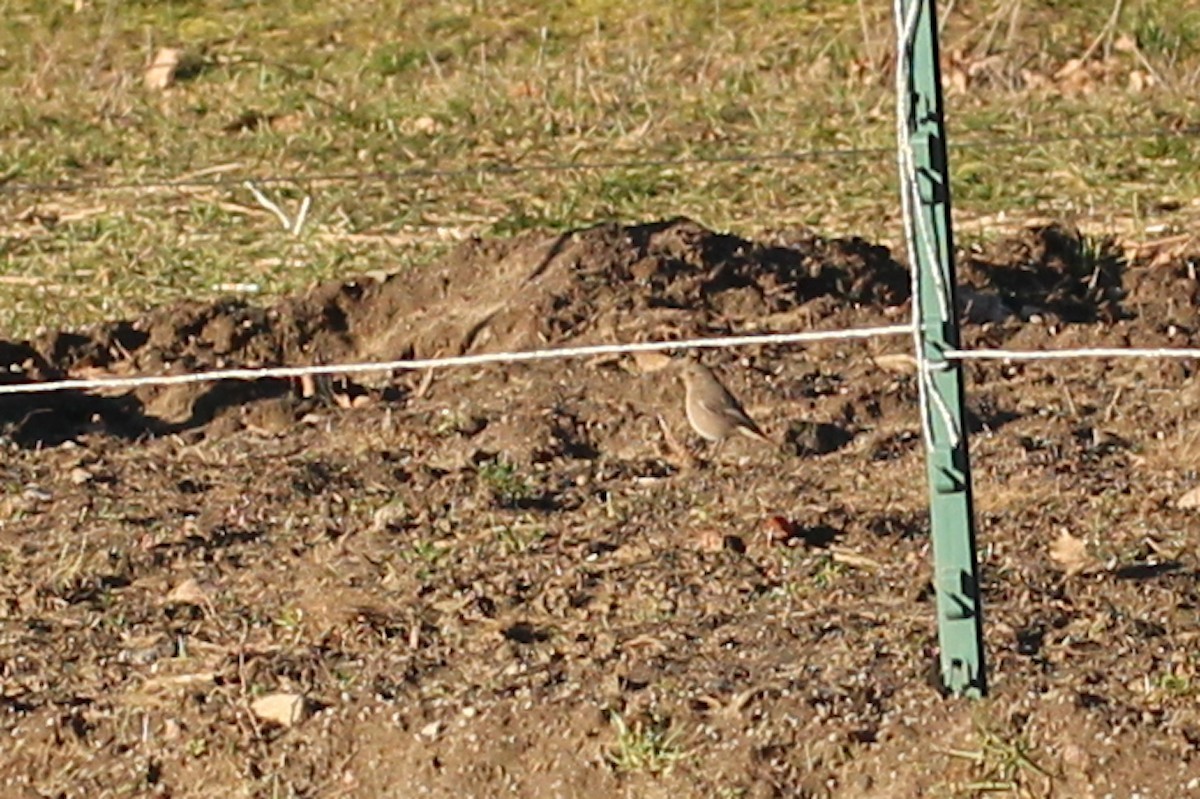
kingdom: Animalia
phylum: Chordata
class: Aves
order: Passeriformes
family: Muscicapidae
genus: Phoenicurus
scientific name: Phoenicurus ochruros
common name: Black redstart
